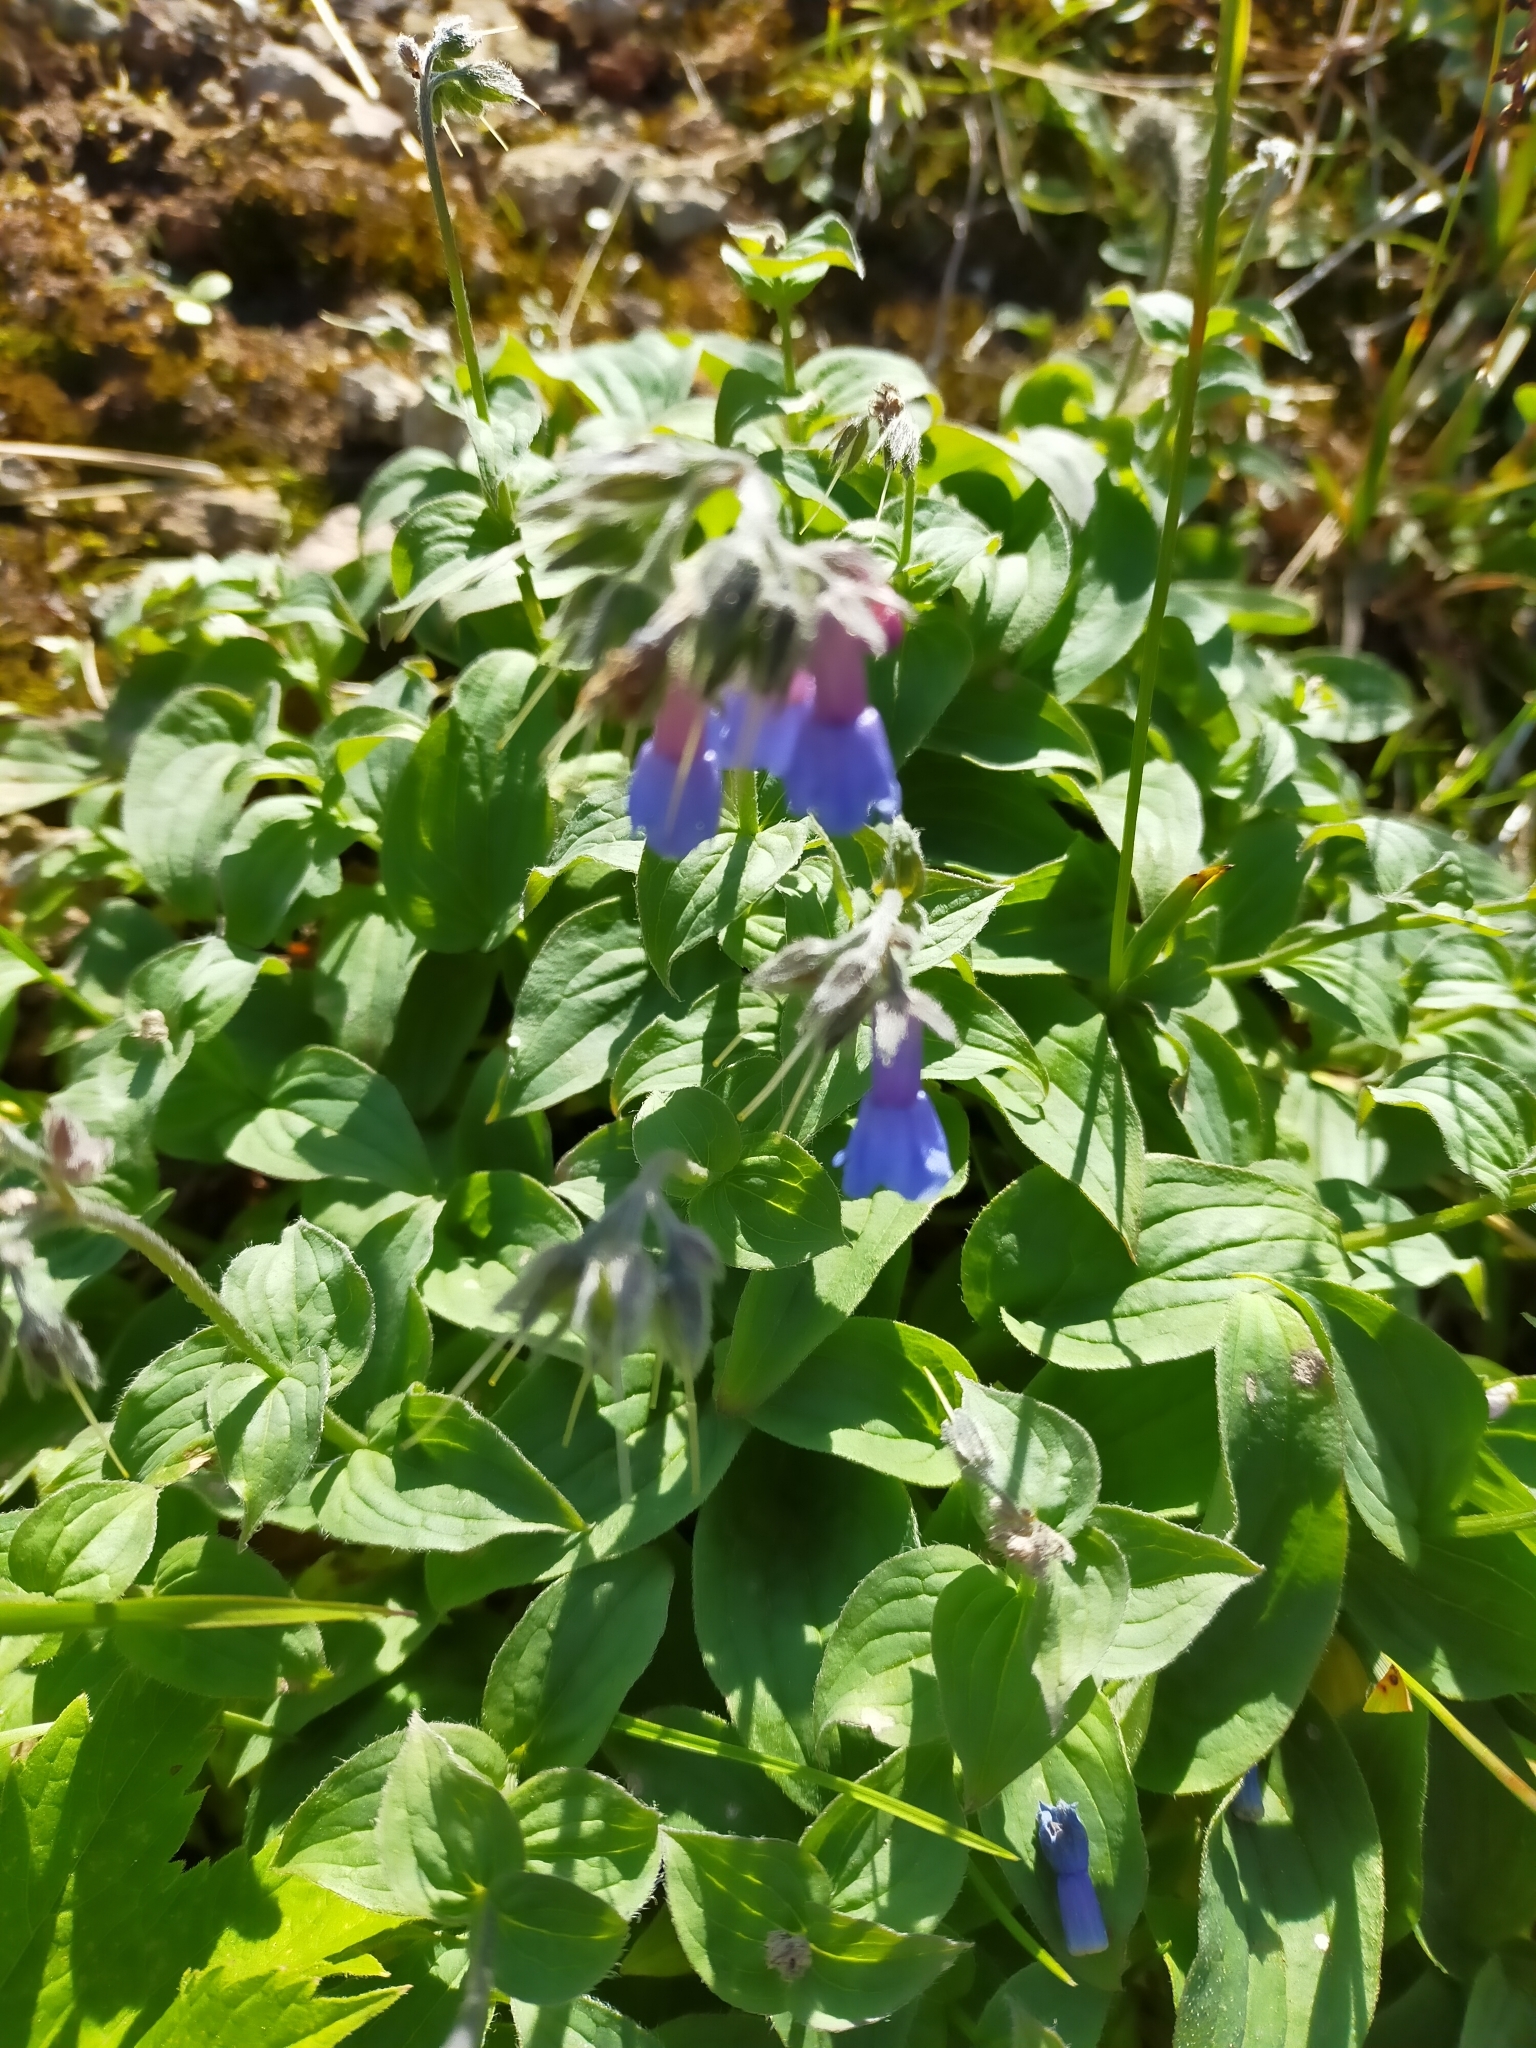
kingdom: Plantae
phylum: Tracheophyta
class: Magnoliopsida
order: Boraginales
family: Boraginaceae
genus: Mertensia
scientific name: Mertensia kamczatica
